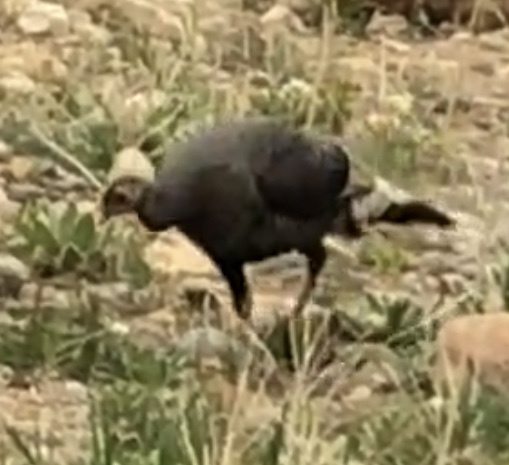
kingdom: Animalia
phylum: Chordata
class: Aves
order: Galliformes
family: Phasianidae
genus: Meleagris
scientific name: Meleagris gallopavo
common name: Wild turkey
